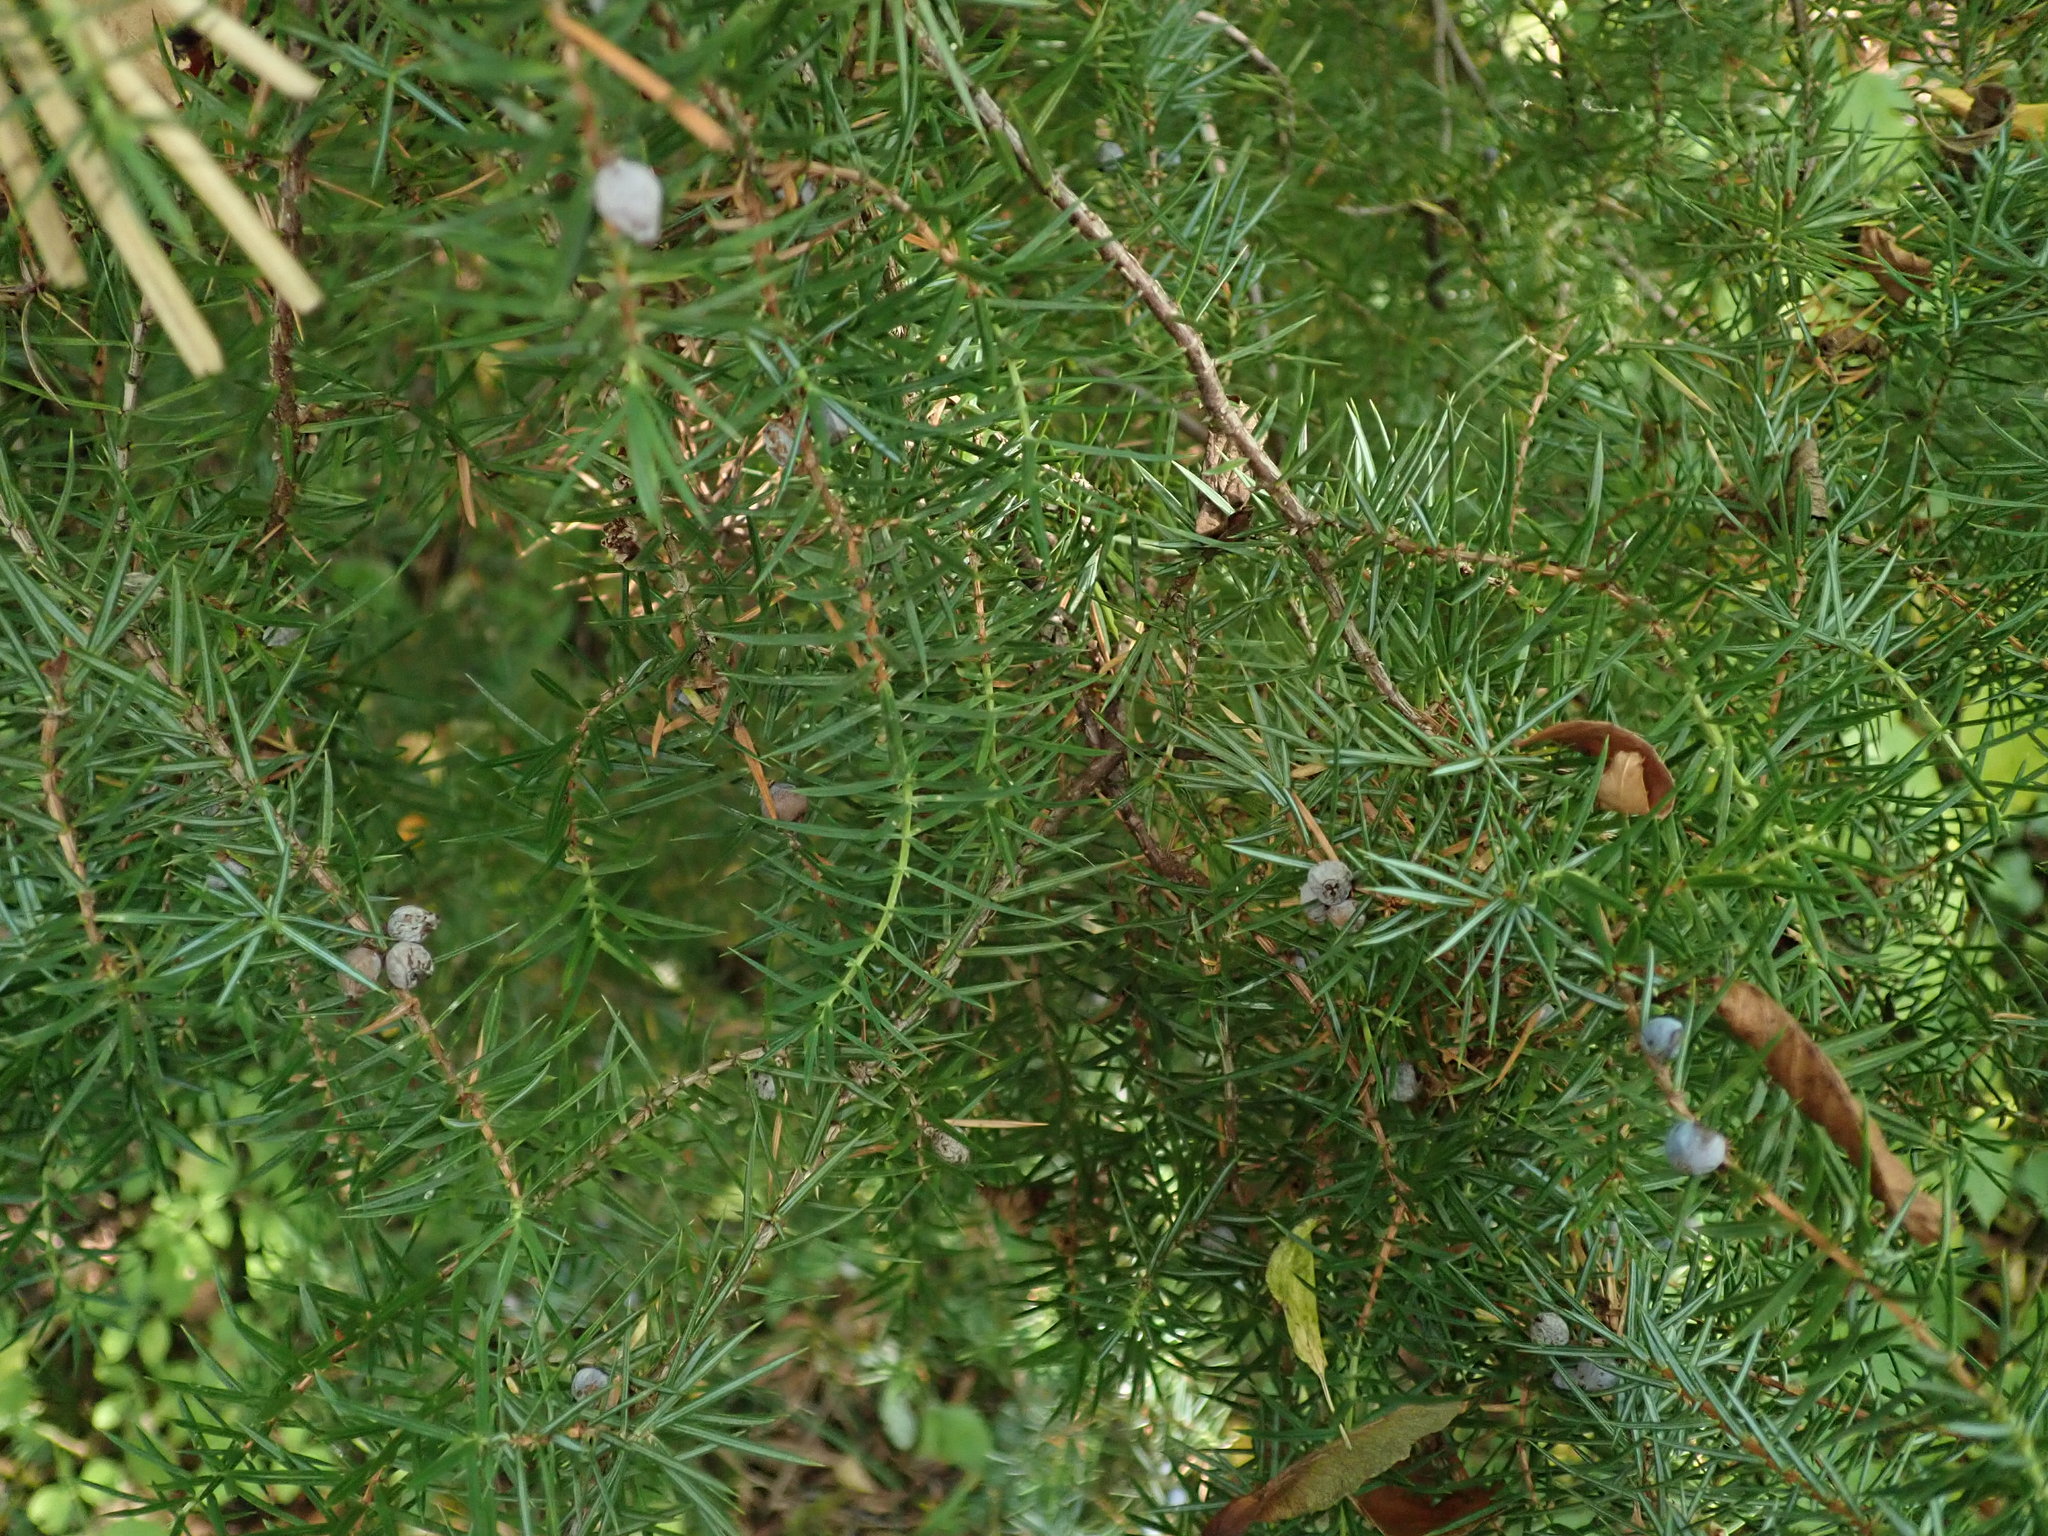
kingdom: Plantae
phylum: Tracheophyta
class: Pinopsida
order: Pinales
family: Cupressaceae
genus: Juniperus
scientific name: Juniperus communis
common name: Common juniper
